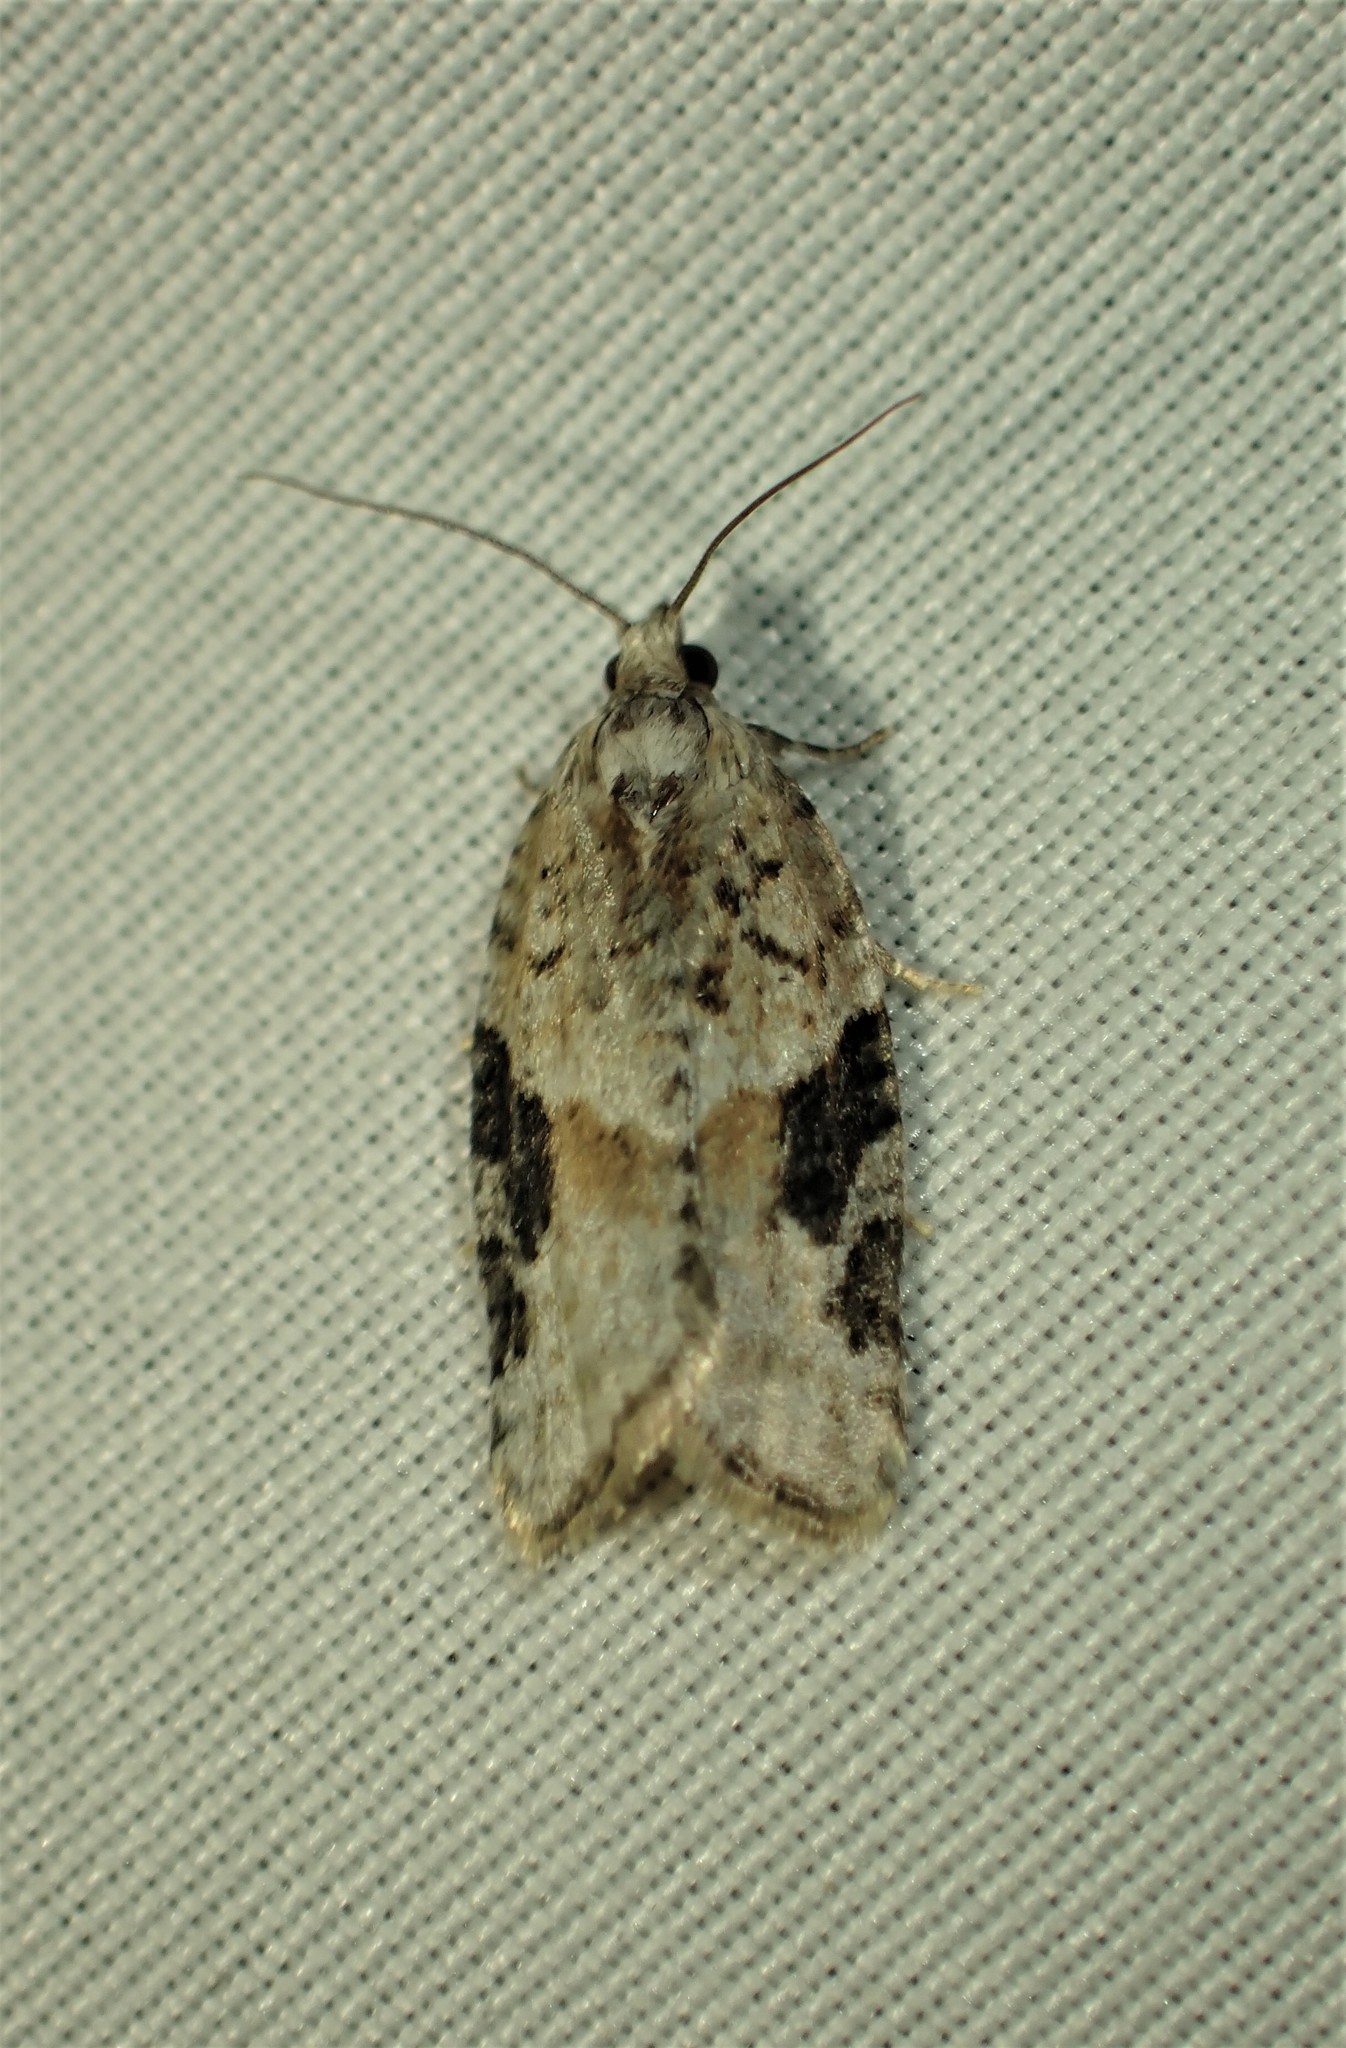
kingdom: Animalia
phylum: Arthropoda
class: Insecta
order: Lepidoptera
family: Tortricidae
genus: Argyrotaenia
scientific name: Argyrotaenia mariana
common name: Gray-banded leafroller moth
